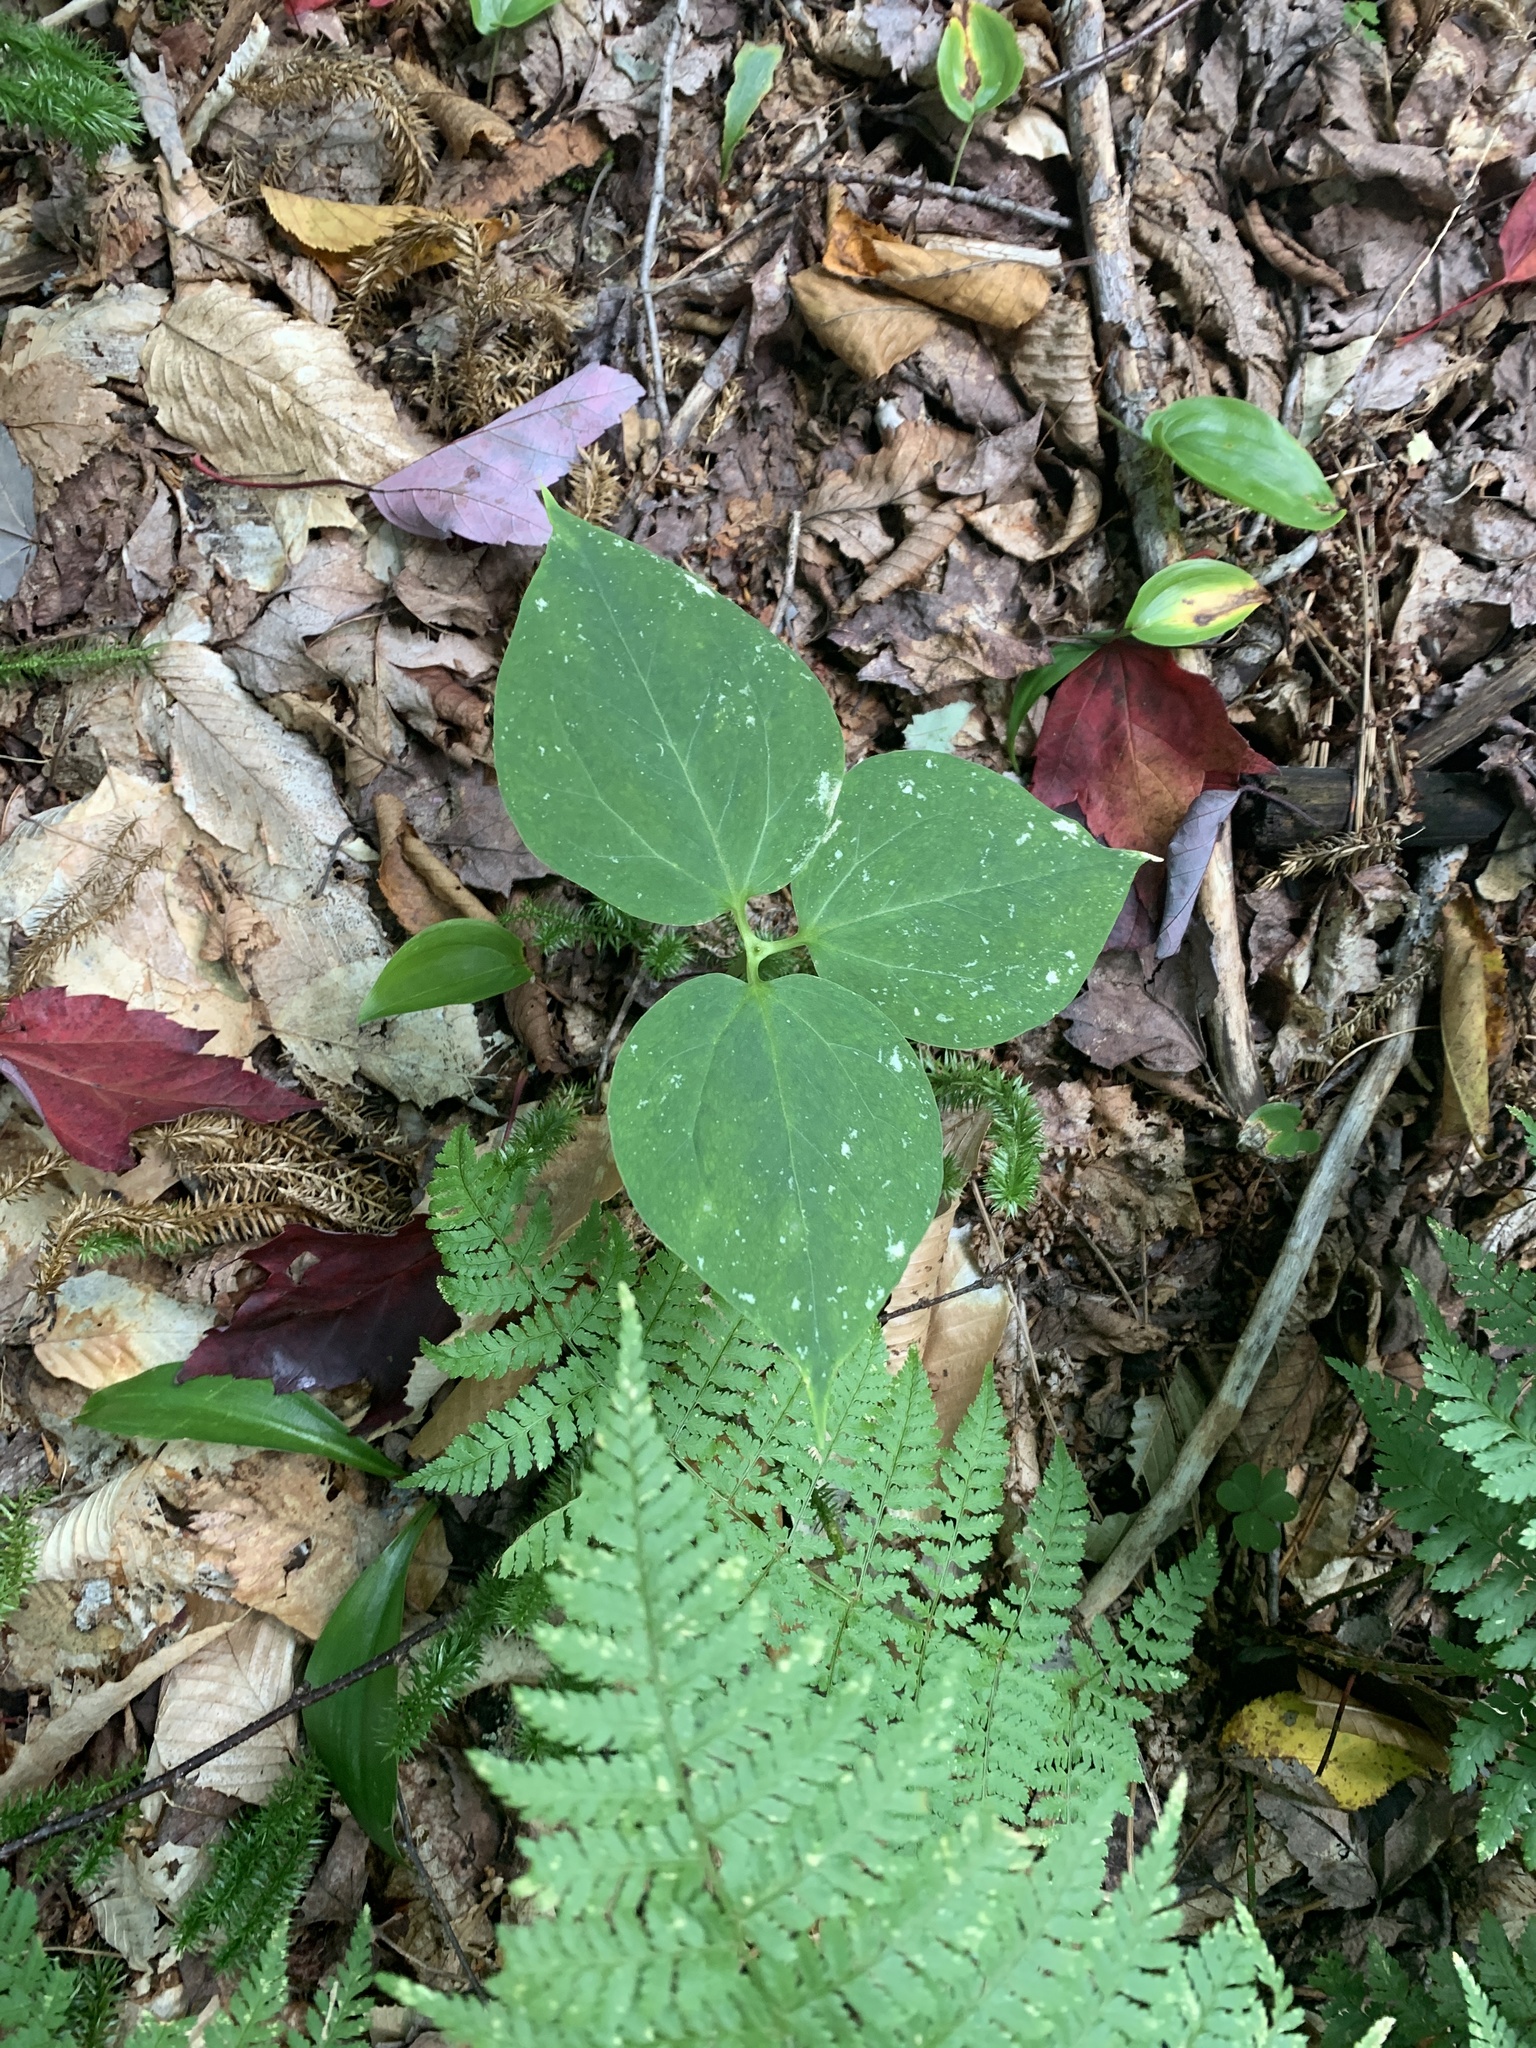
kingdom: Plantae
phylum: Tracheophyta
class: Liliopsida
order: Liliales
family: Melanthiaceae
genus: Trillium
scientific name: Trillium undulatum
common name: Paint trillium
